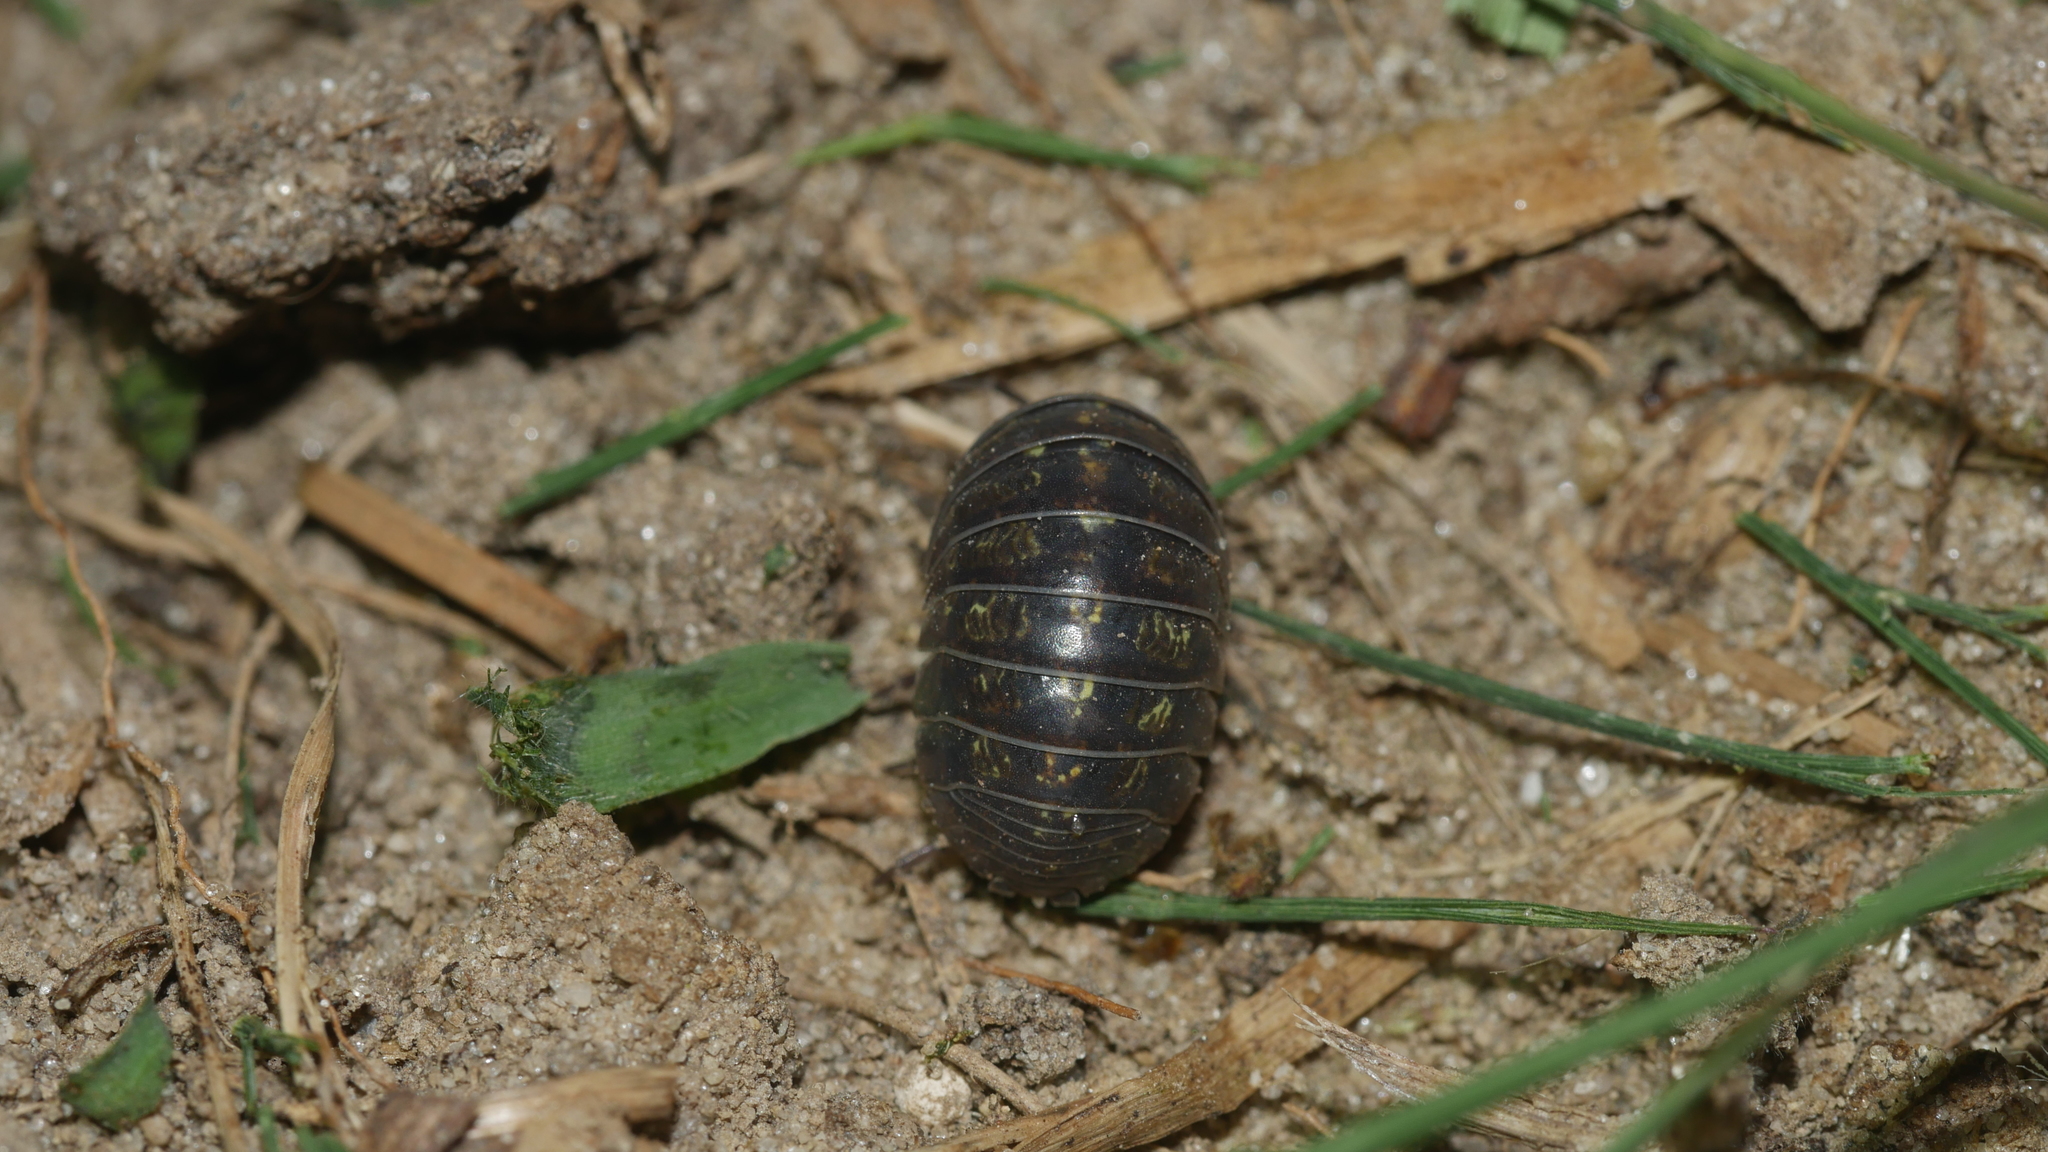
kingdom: Animalia
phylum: Arthropoda
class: Malacostraca
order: Isopoda
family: Armadillidiidae
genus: Armadillidium
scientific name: Armadillidium vulgare
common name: Common pill woodlouse
